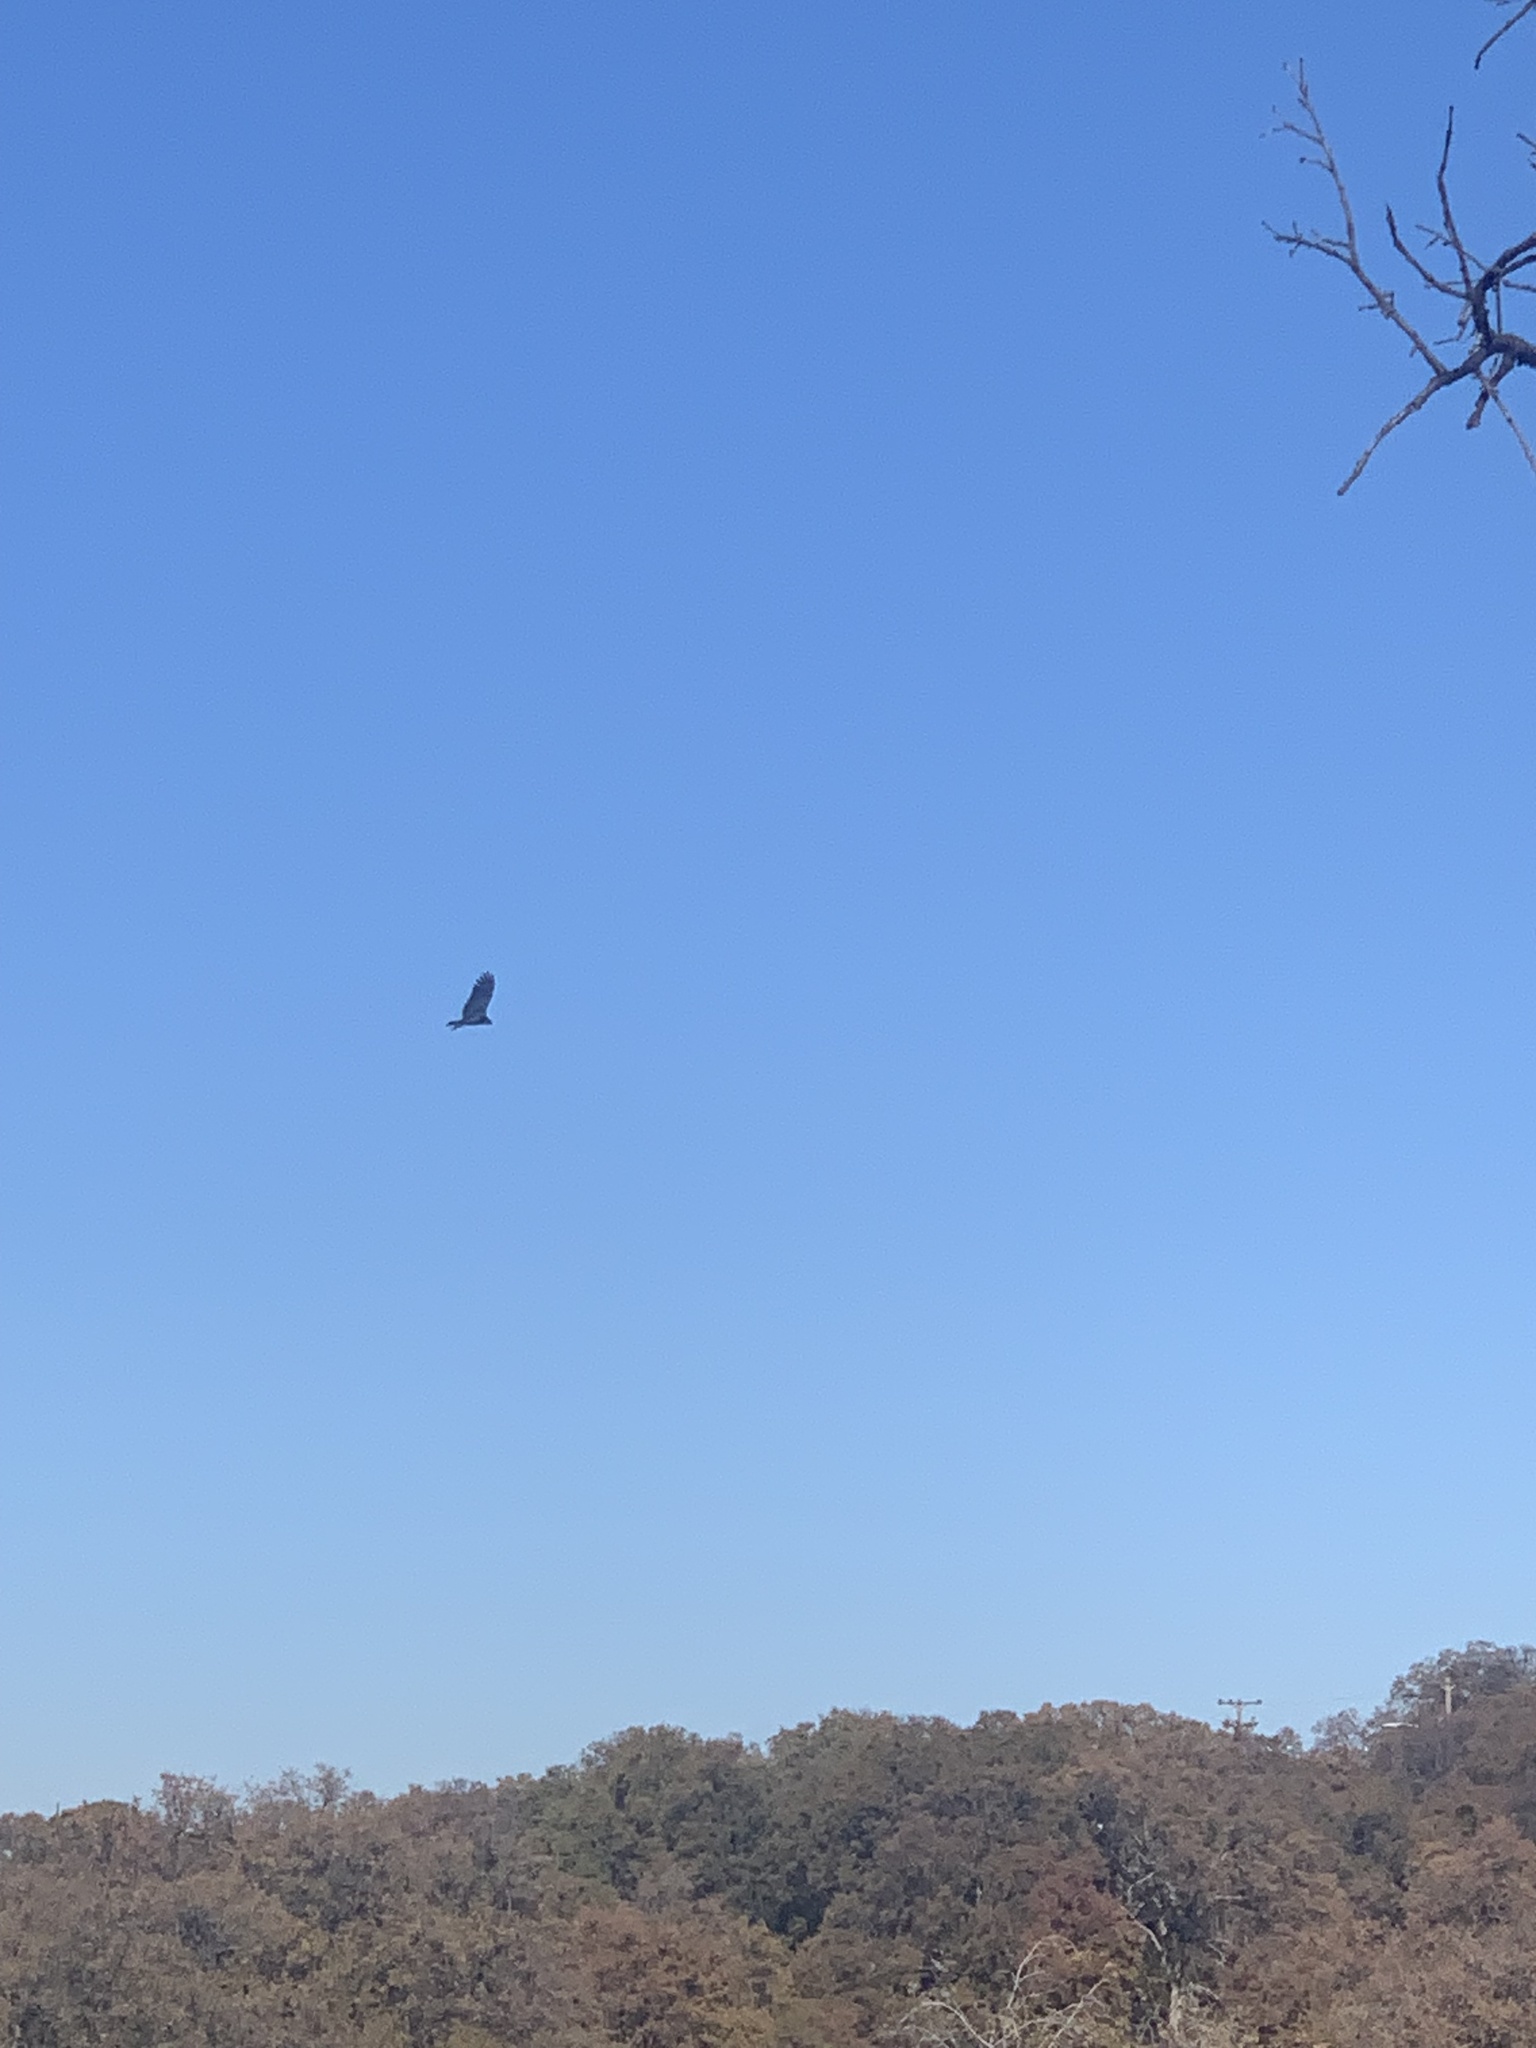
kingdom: Animalia
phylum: Chordata
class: Aves
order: Accipitriformes
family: Cathartidae
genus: Cathartes
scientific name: Cathartes aura
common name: Turkey vulture
